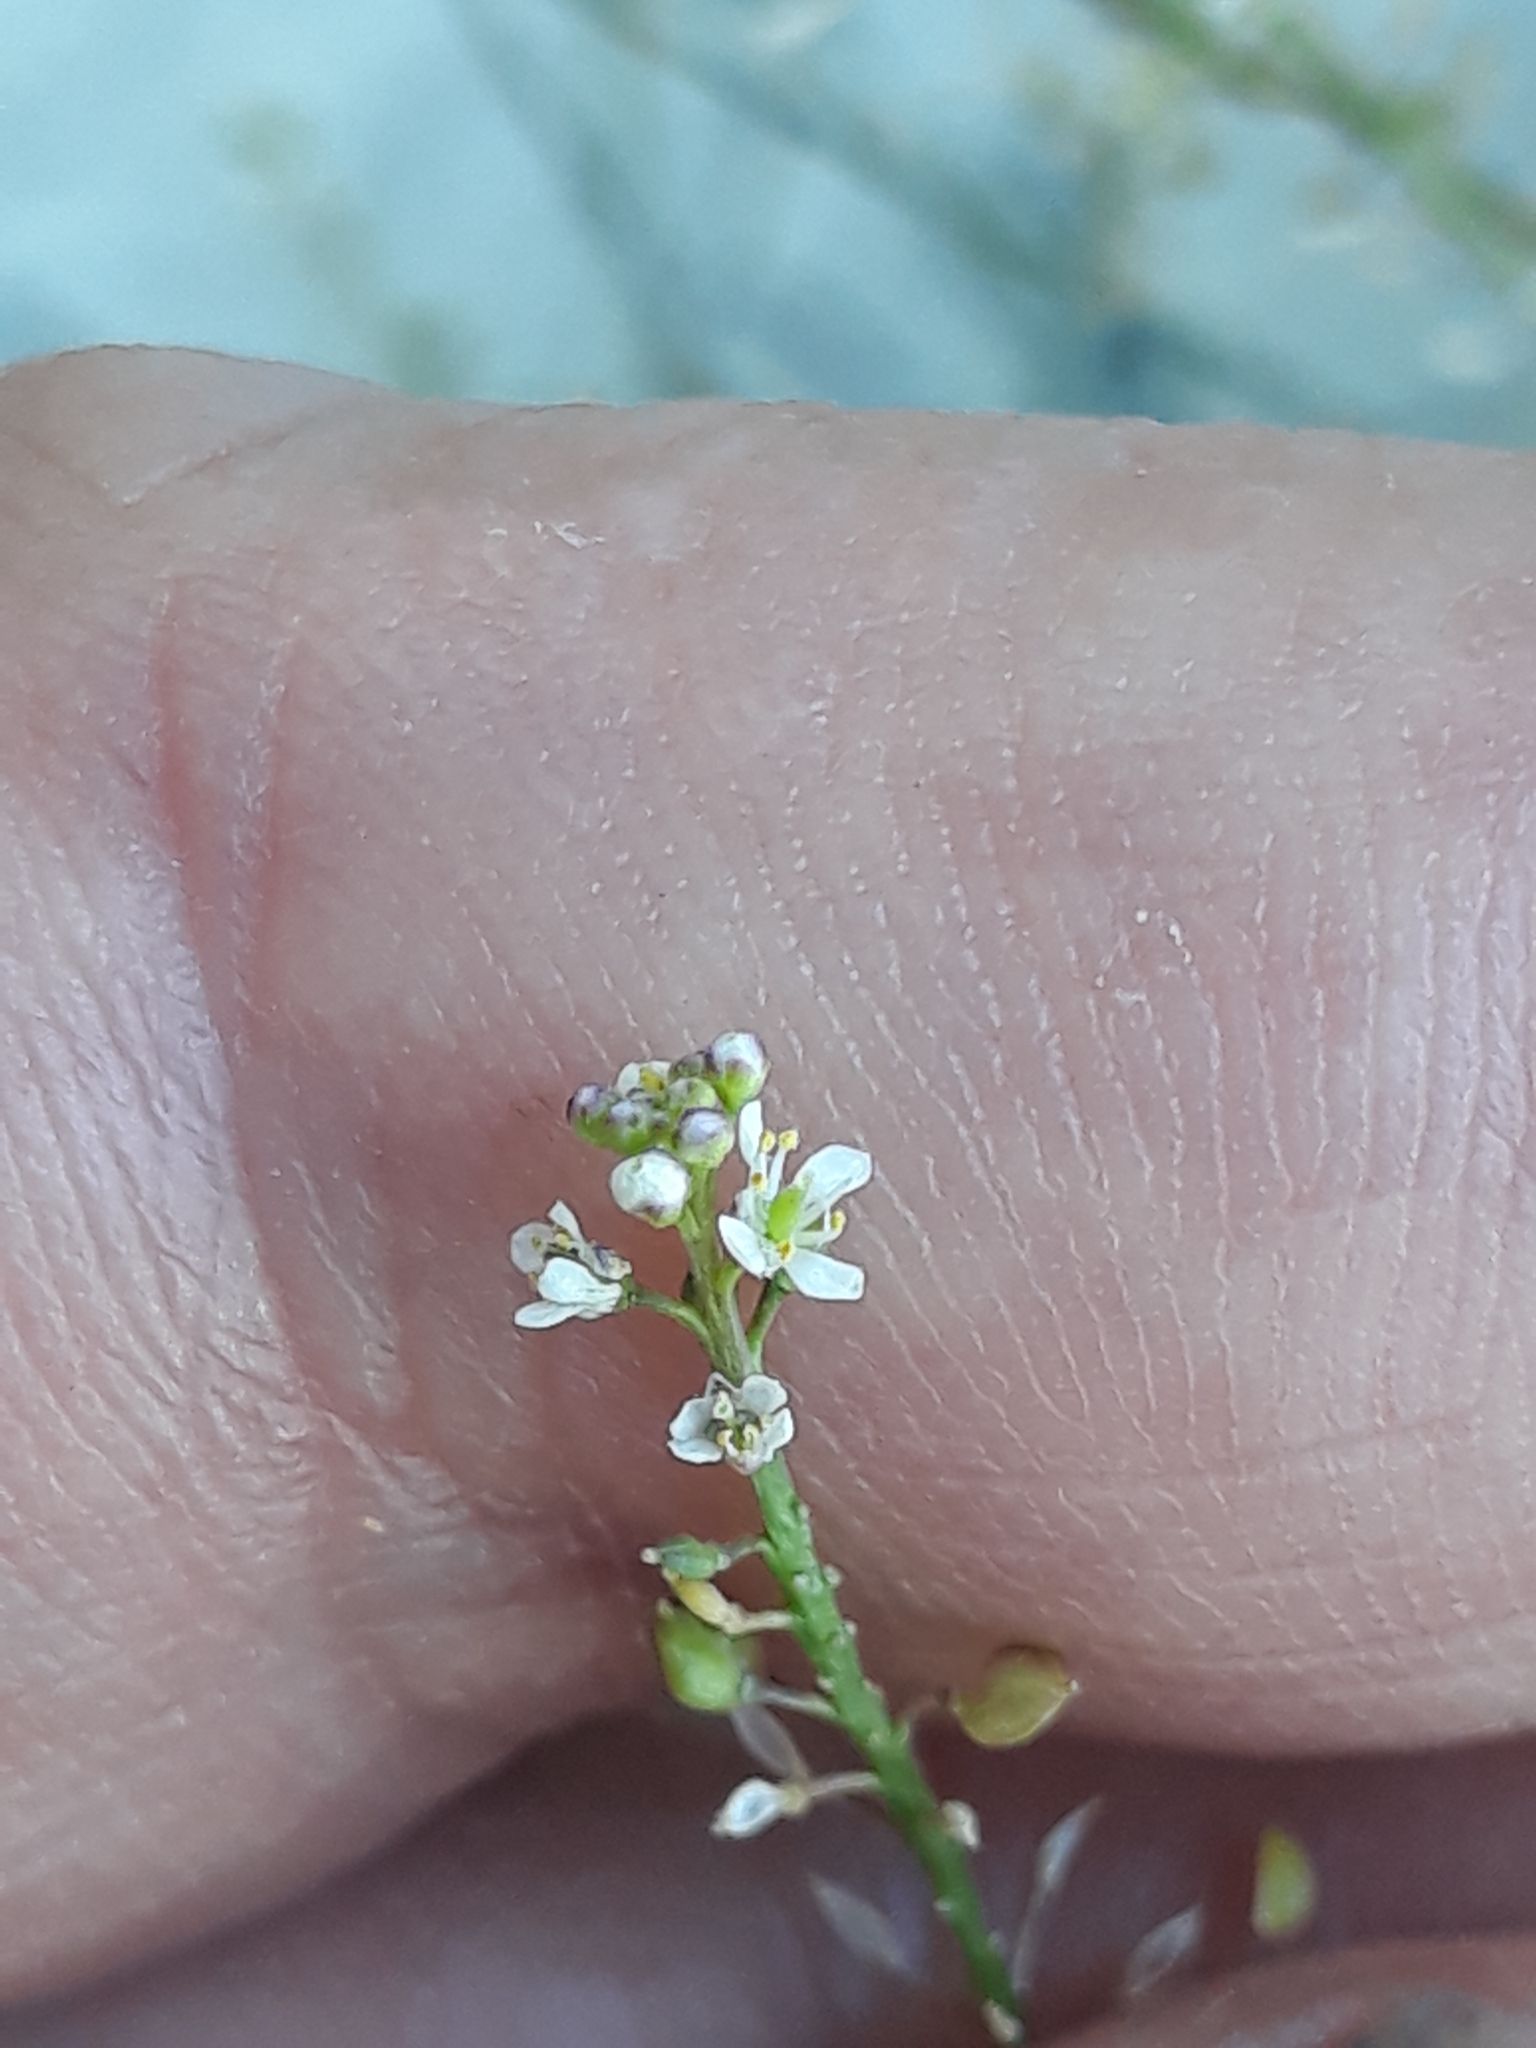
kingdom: Plantae
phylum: Tracheophyta
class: Magnoliopsida
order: Brassicales
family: Brassicaceae
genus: Lepidium
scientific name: Lepidium graminifolium
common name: Tall pepperwort
